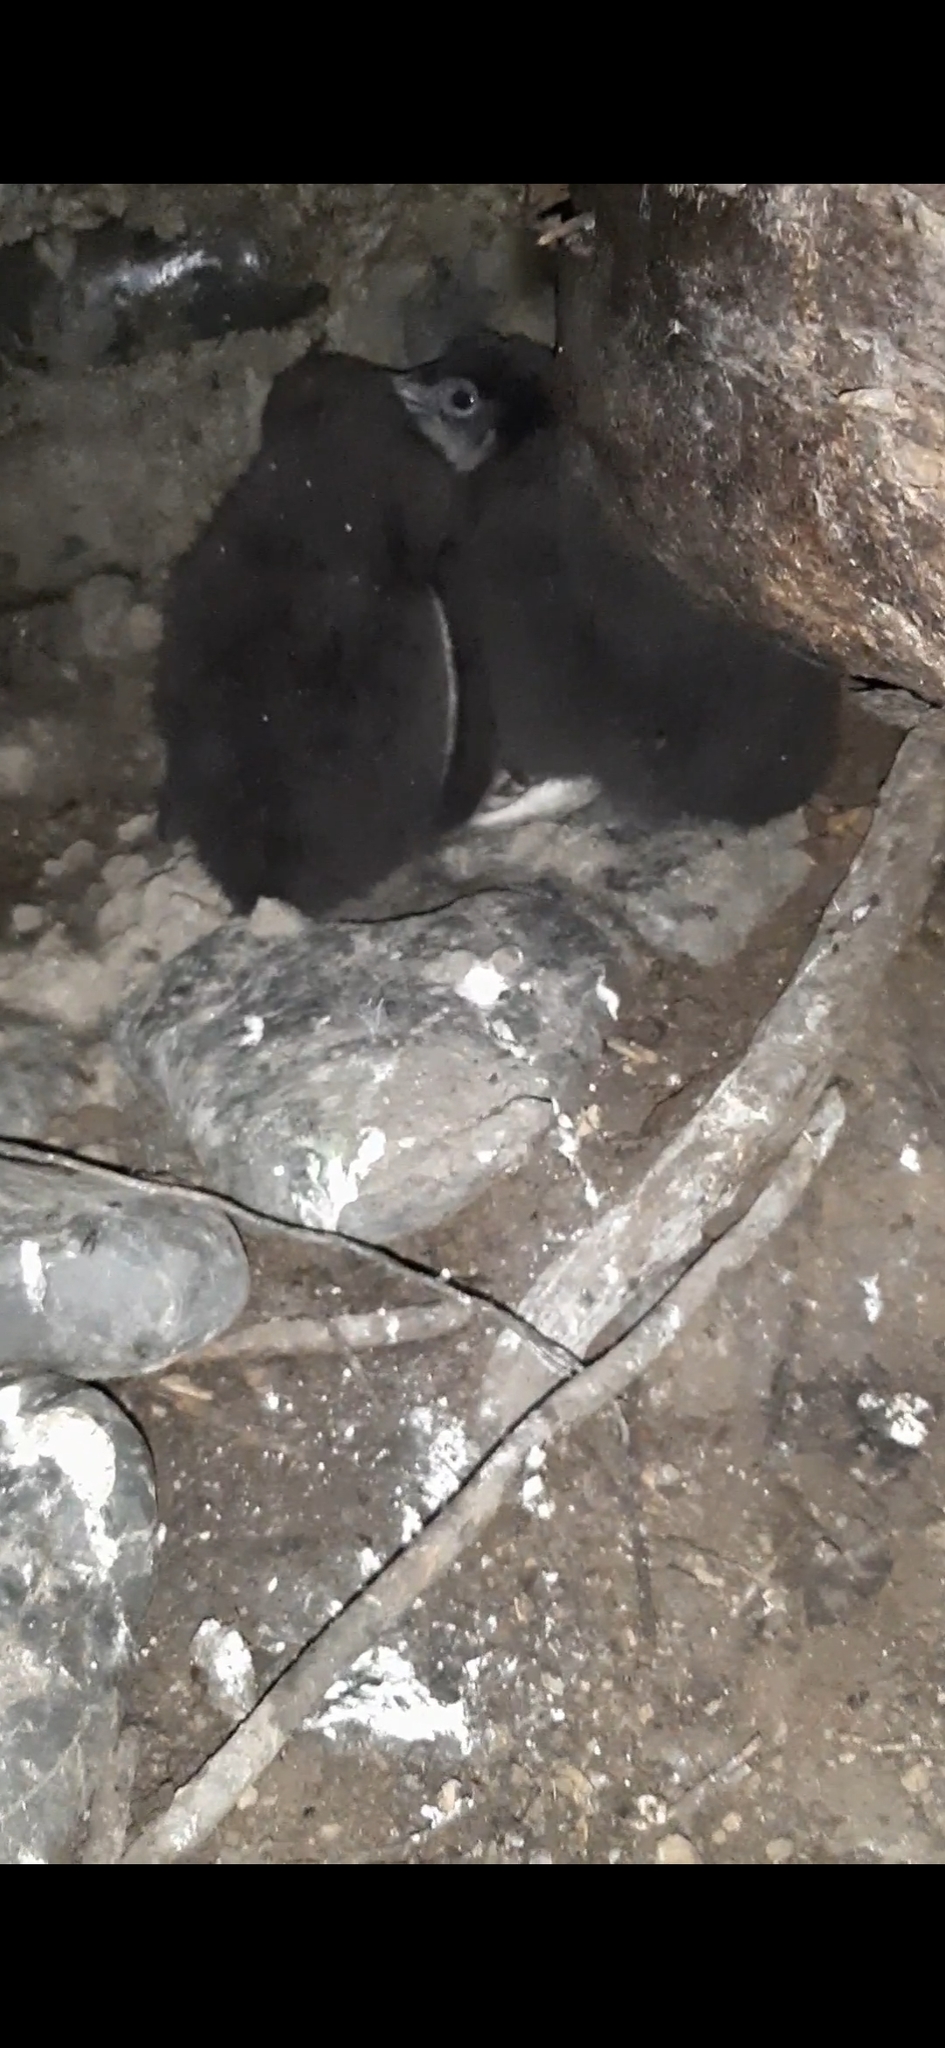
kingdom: Animalia
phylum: Chordata
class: Aves
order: Sphenisciformes
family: Spheniscidae
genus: Eudyptula
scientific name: Eudyptula minor
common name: Little penguin
